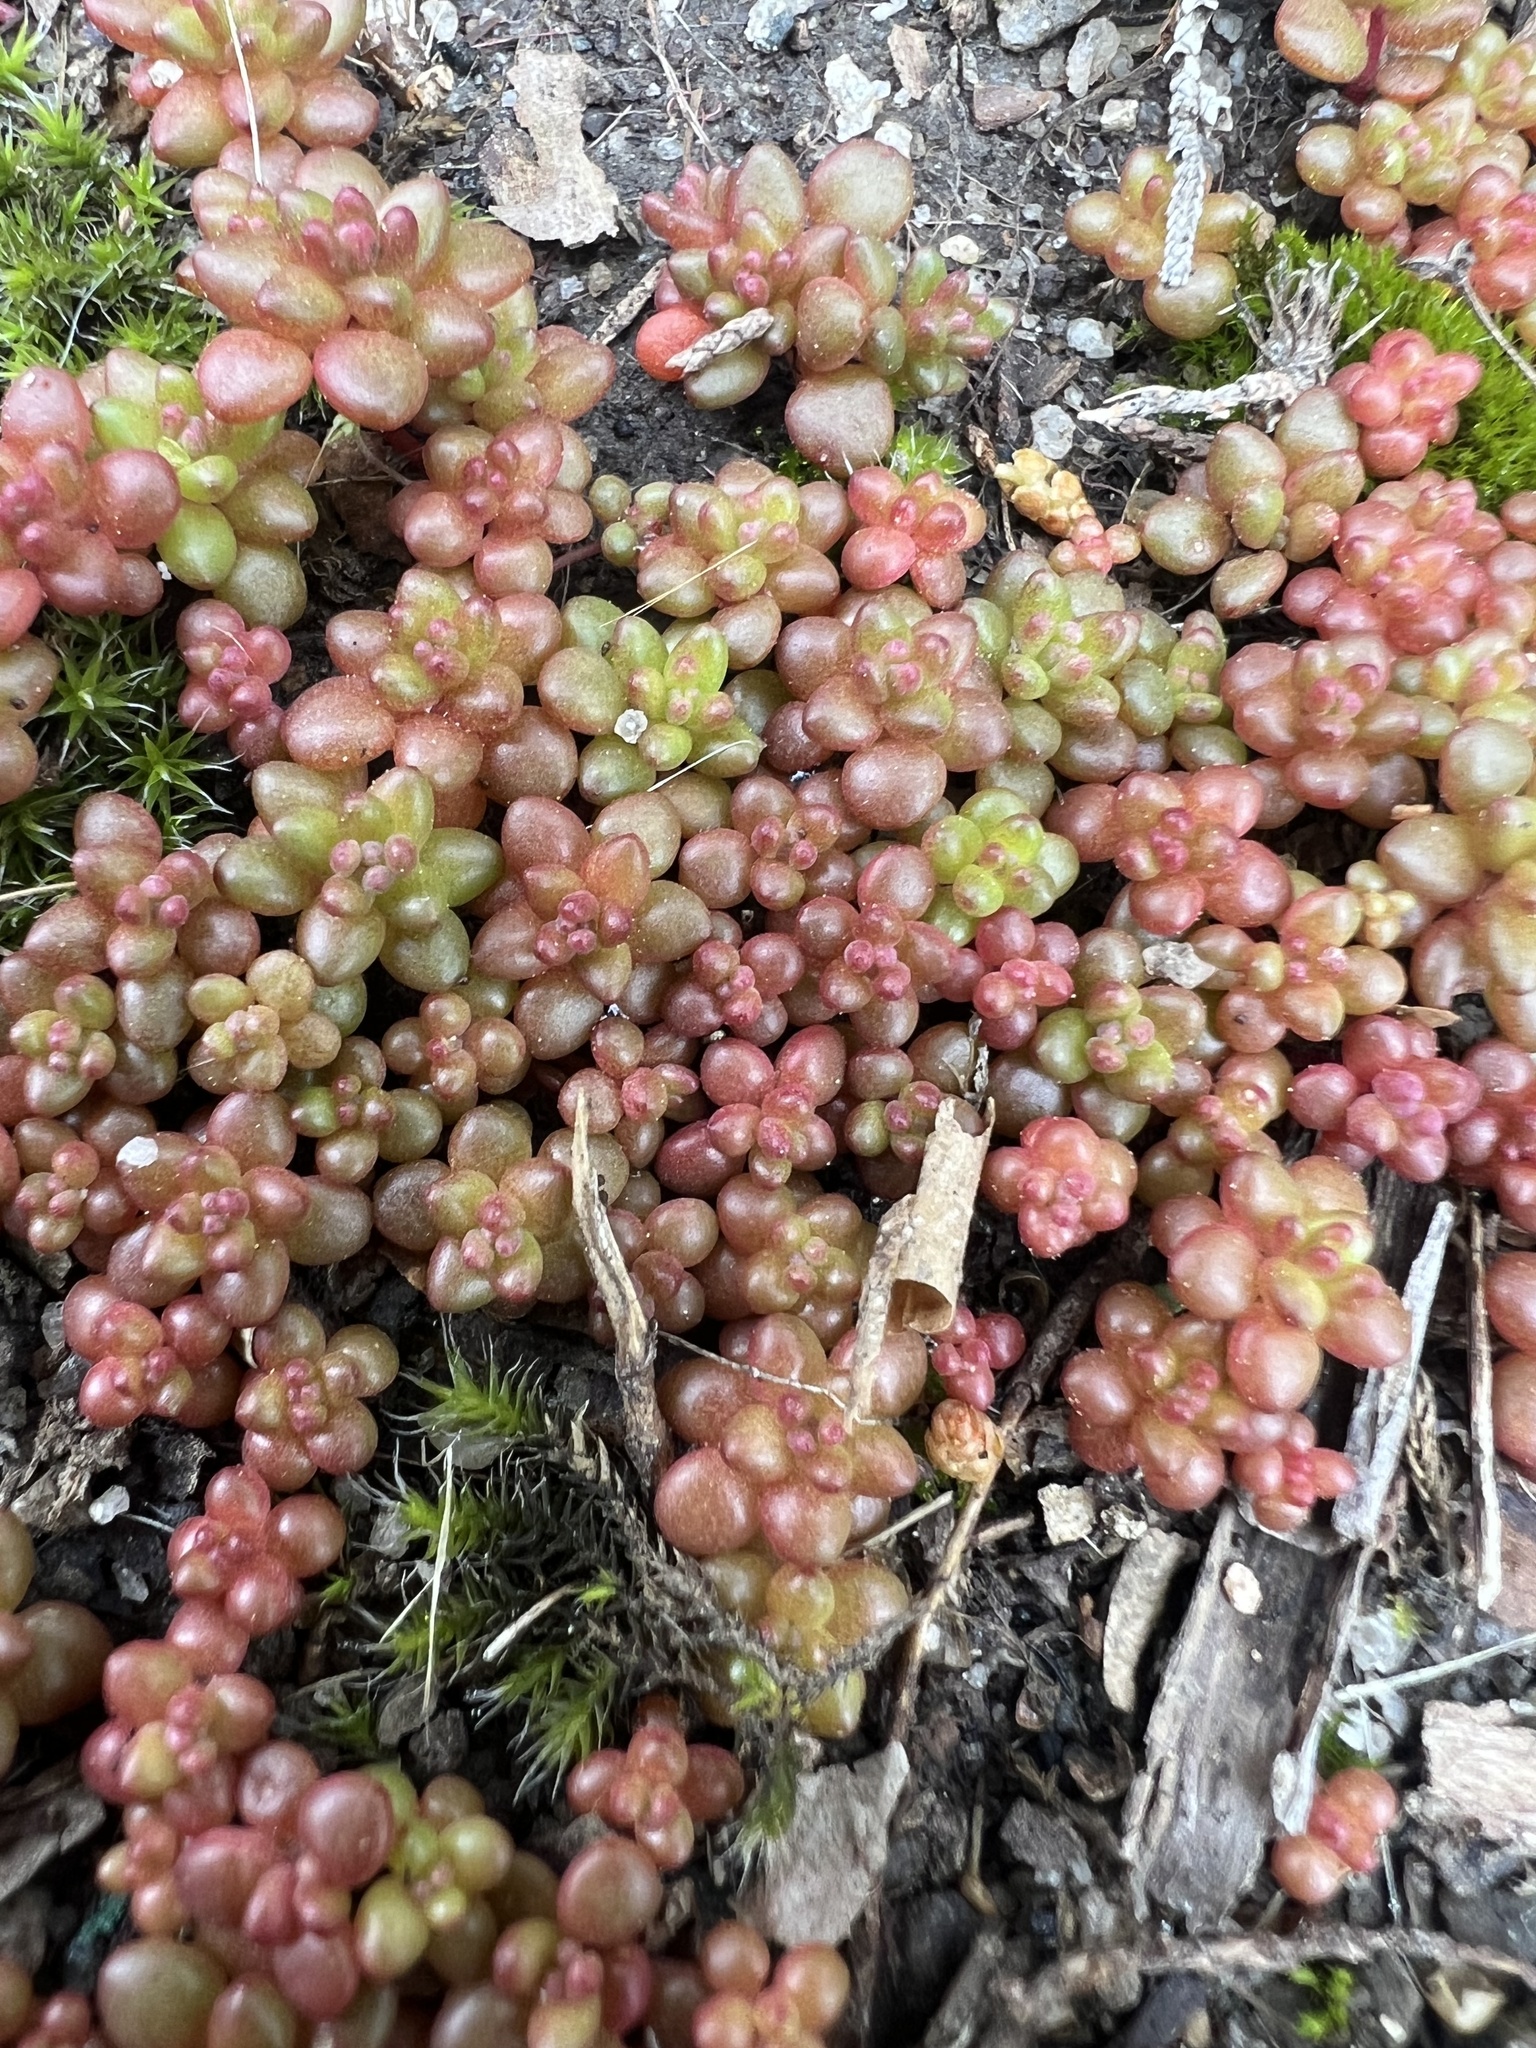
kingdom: Plantae
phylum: Tracheophyta
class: Magnoliopsida
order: Saxifragales
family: Crassulaceae
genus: Sedum
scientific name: Sedum smallii
